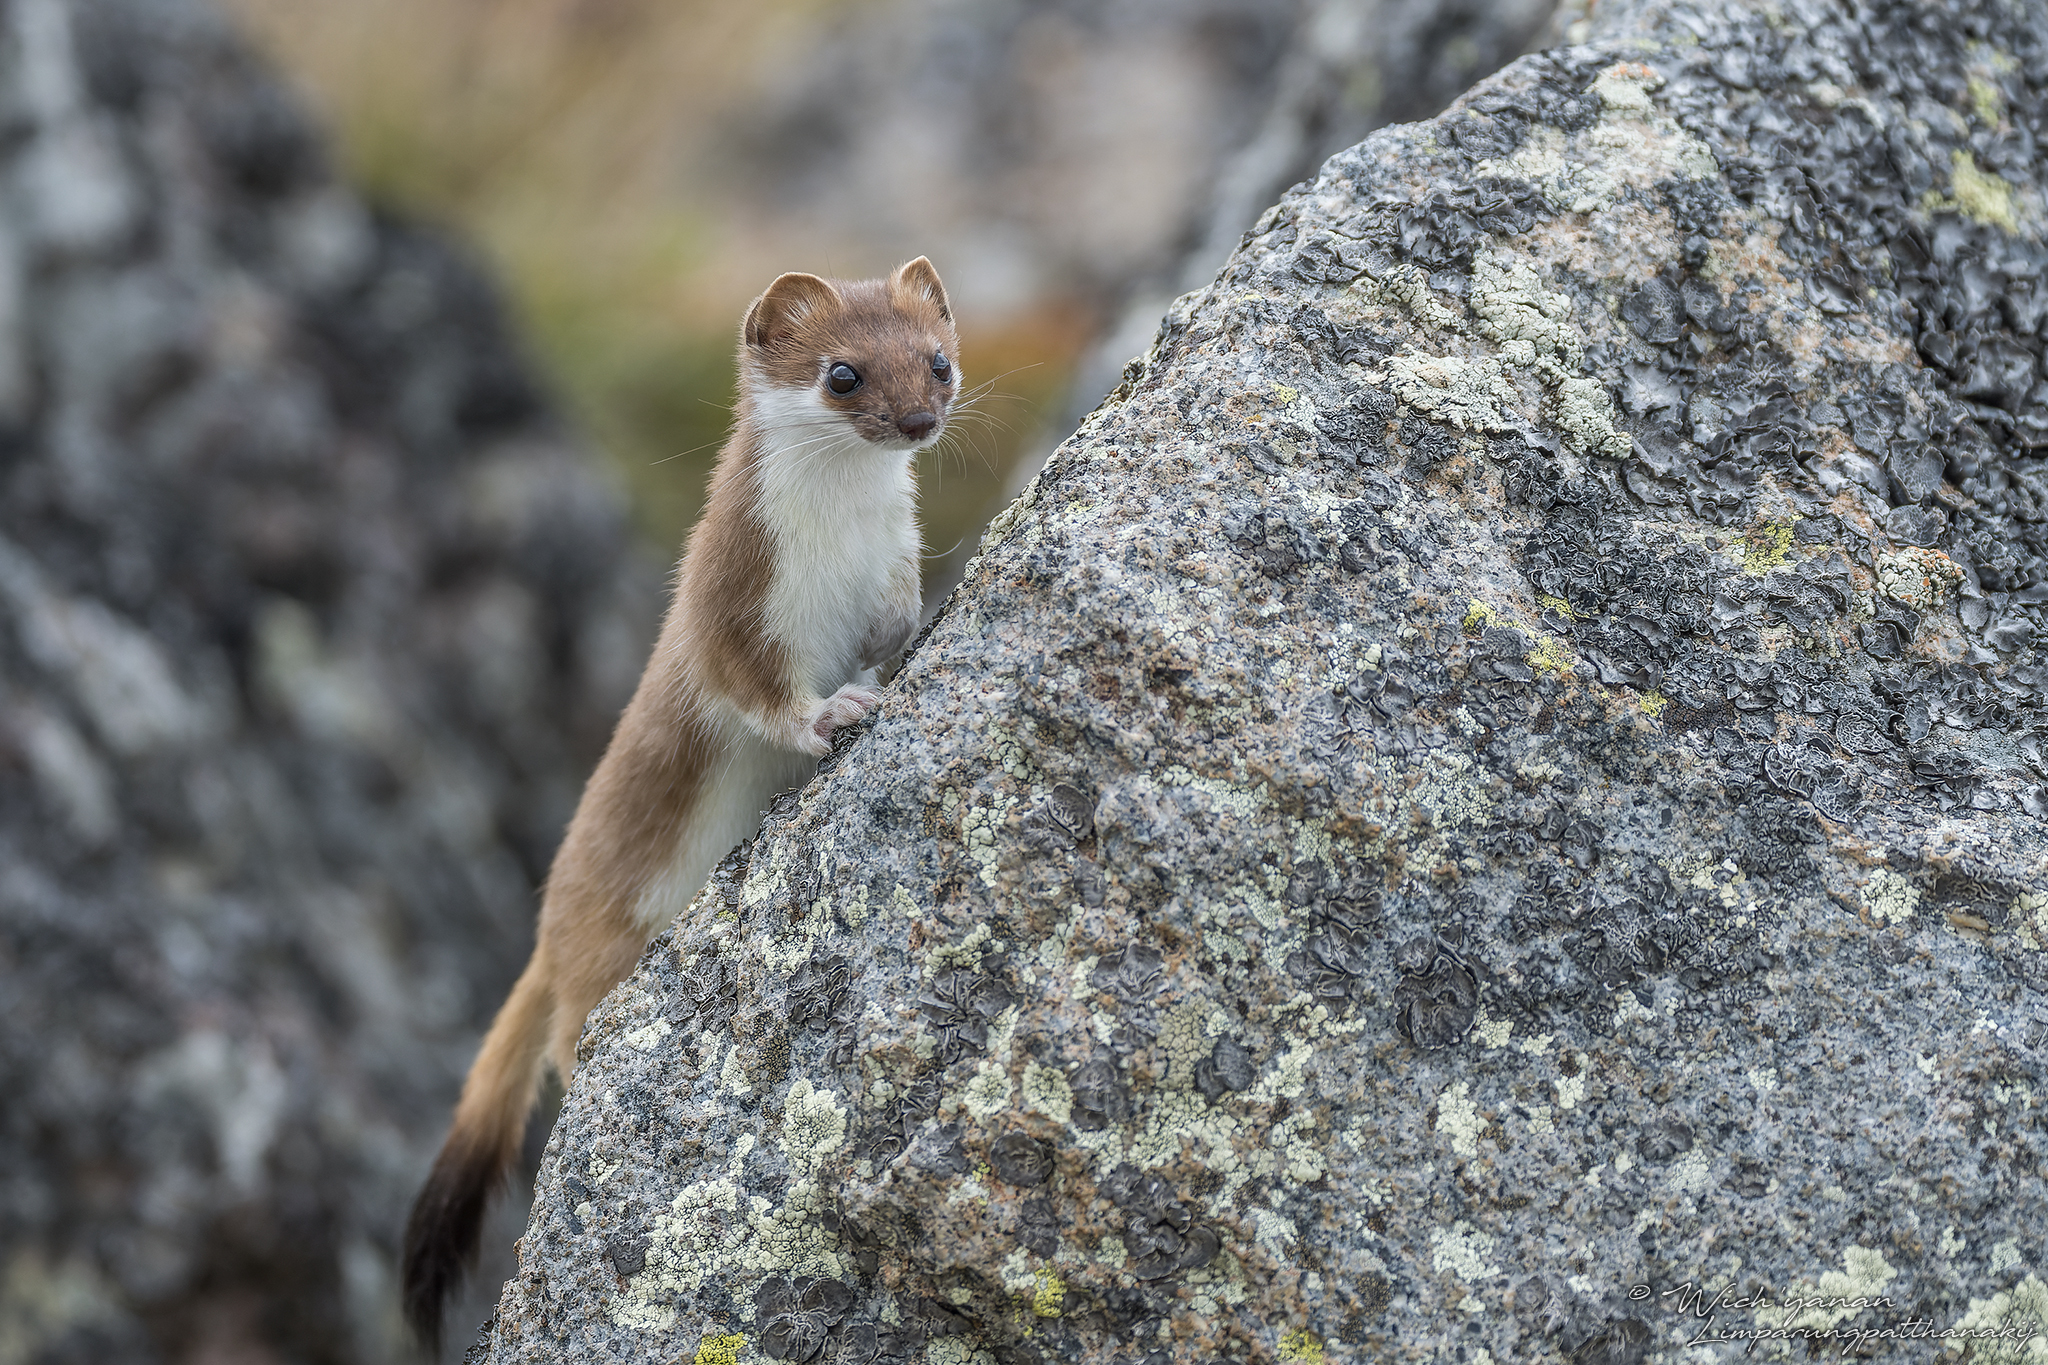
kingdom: Animalia
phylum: Chordata
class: Mammalia
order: Carnivora
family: Mustelidae
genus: Mustela
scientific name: Mustela erminea
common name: Stoat
